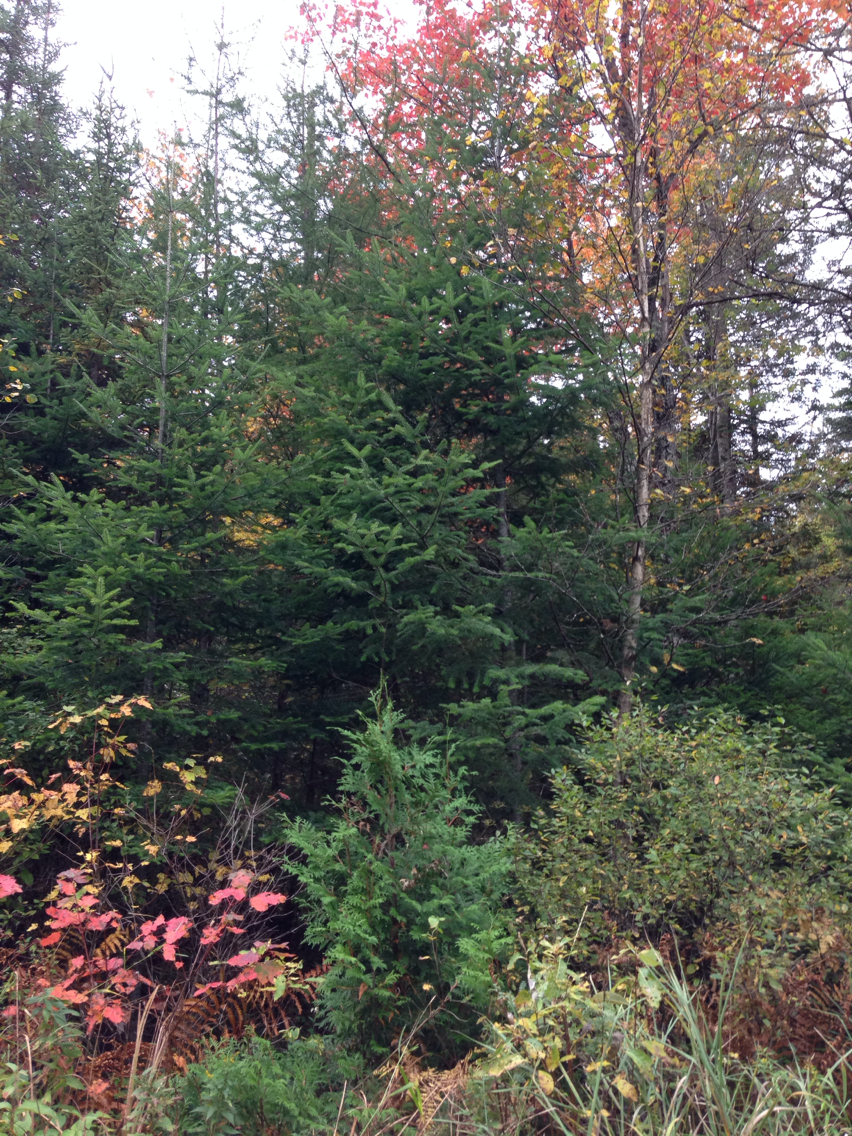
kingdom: Plantae
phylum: Tracheophyta
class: Pinopsida
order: Pinales
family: Pinaceae
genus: Abies
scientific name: Abies balsamea
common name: Balsam fir
